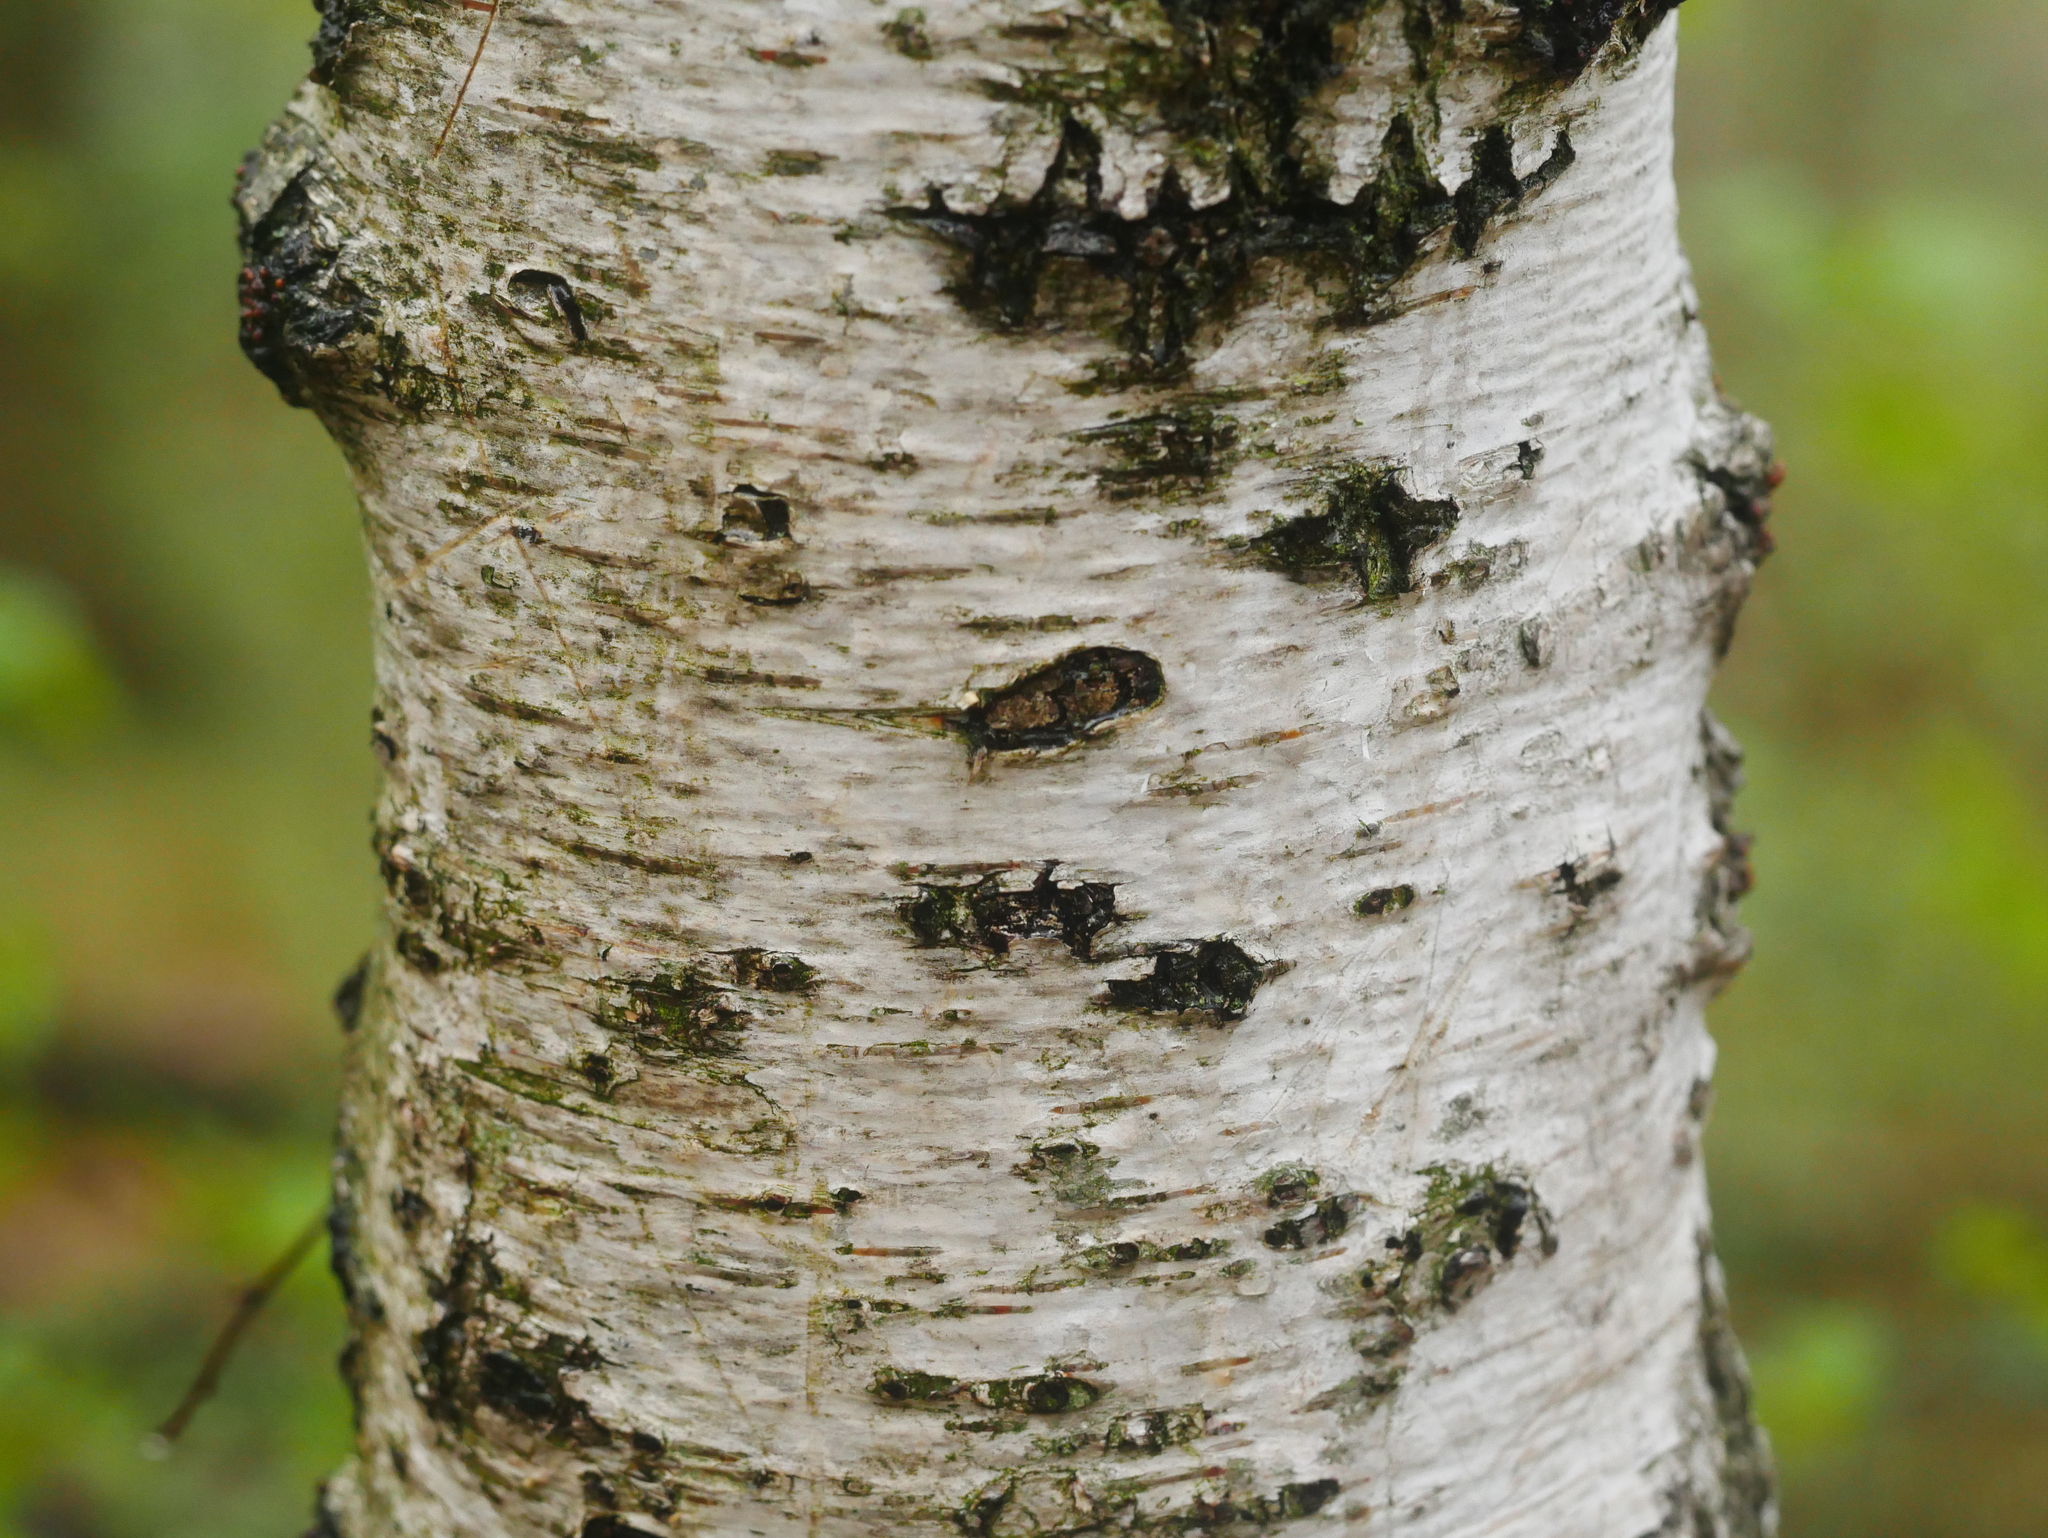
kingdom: Plantae
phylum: Tracheophyta
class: Magnoliopsida
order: Fagales
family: Betulaceae
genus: Betula
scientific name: Betula pendula
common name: Silver birch
